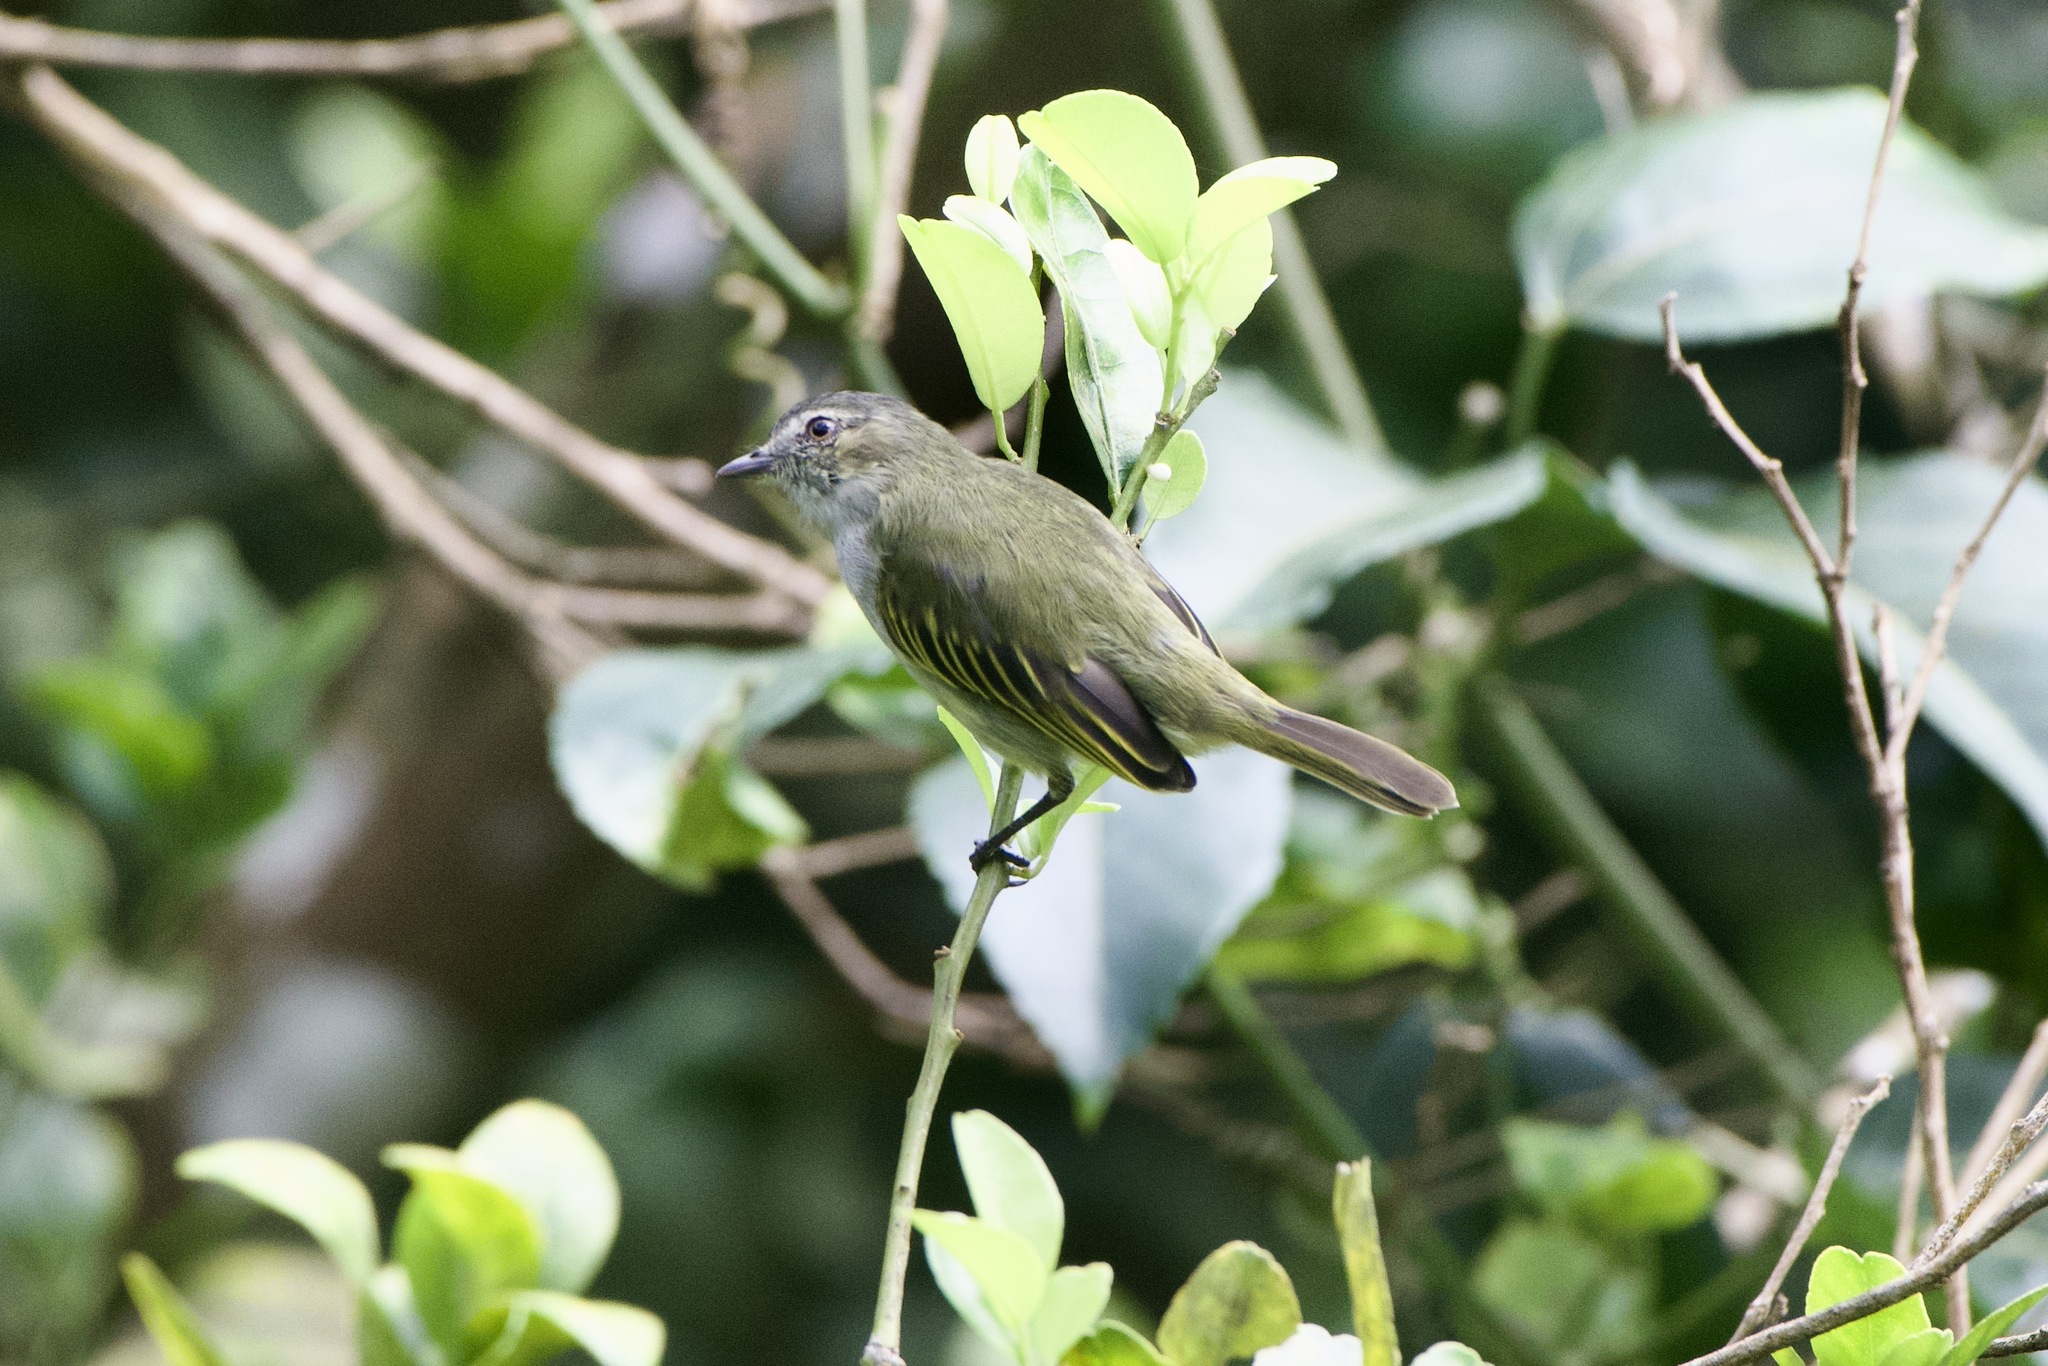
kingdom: Animalia
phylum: Chordata
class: Aves
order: Passeriformes
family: Tyrannidae
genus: Zimmerius
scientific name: Zimmerius vilissimus
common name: Paltry tyrannulet
